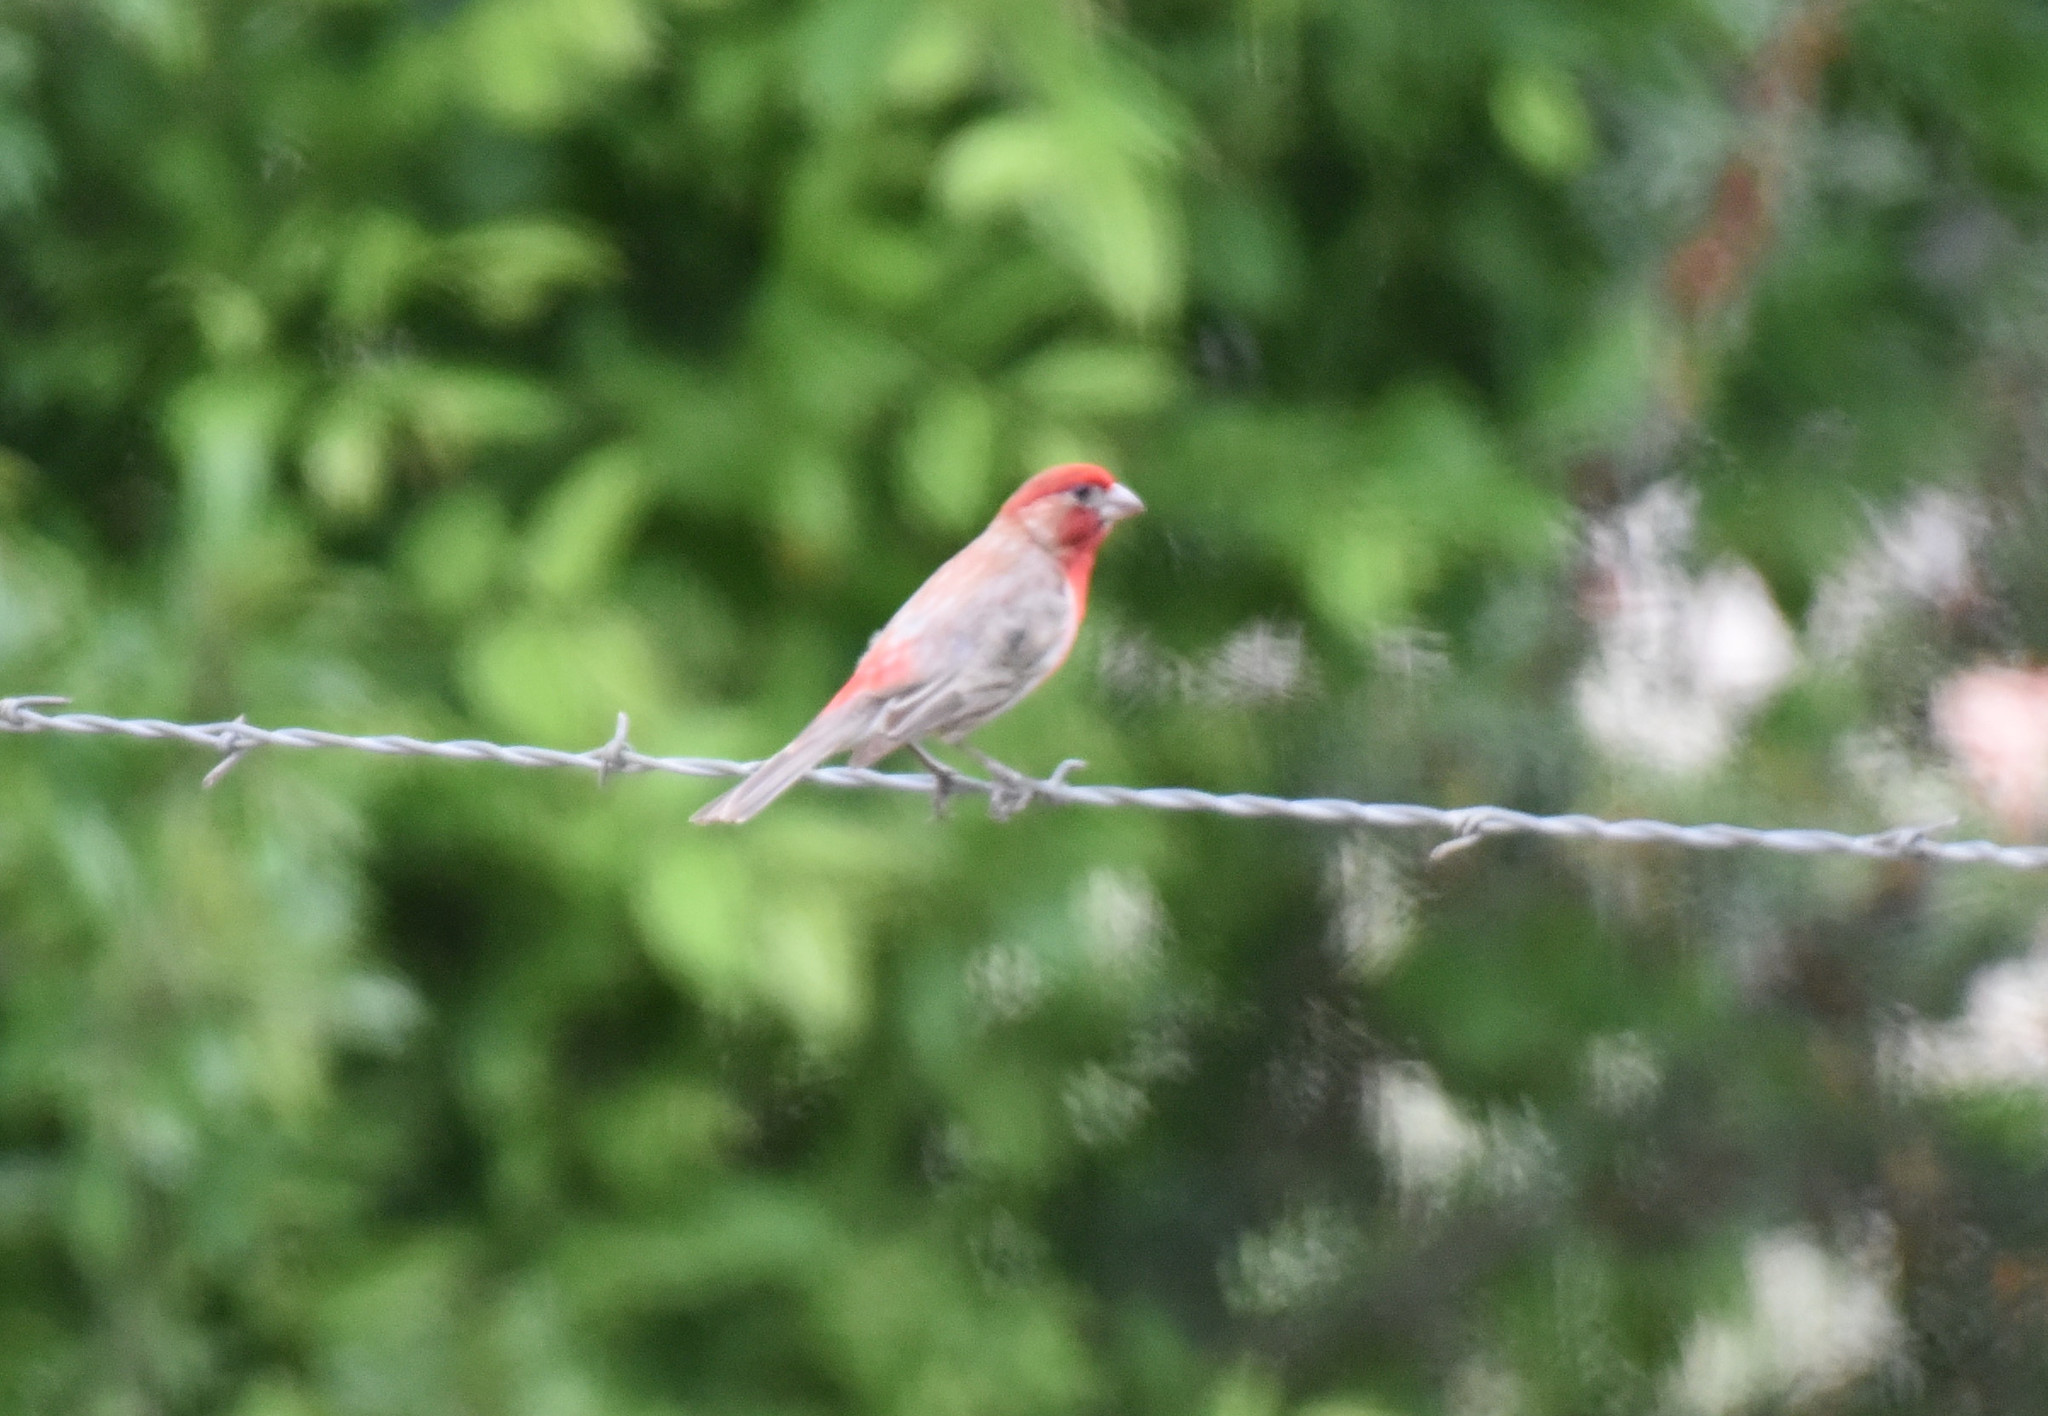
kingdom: Animalia
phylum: Chordata
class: Aves
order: Passeriformes
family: Fringillidae
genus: Haemorhous
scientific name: Haemorhous mexicanus
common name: House finch
